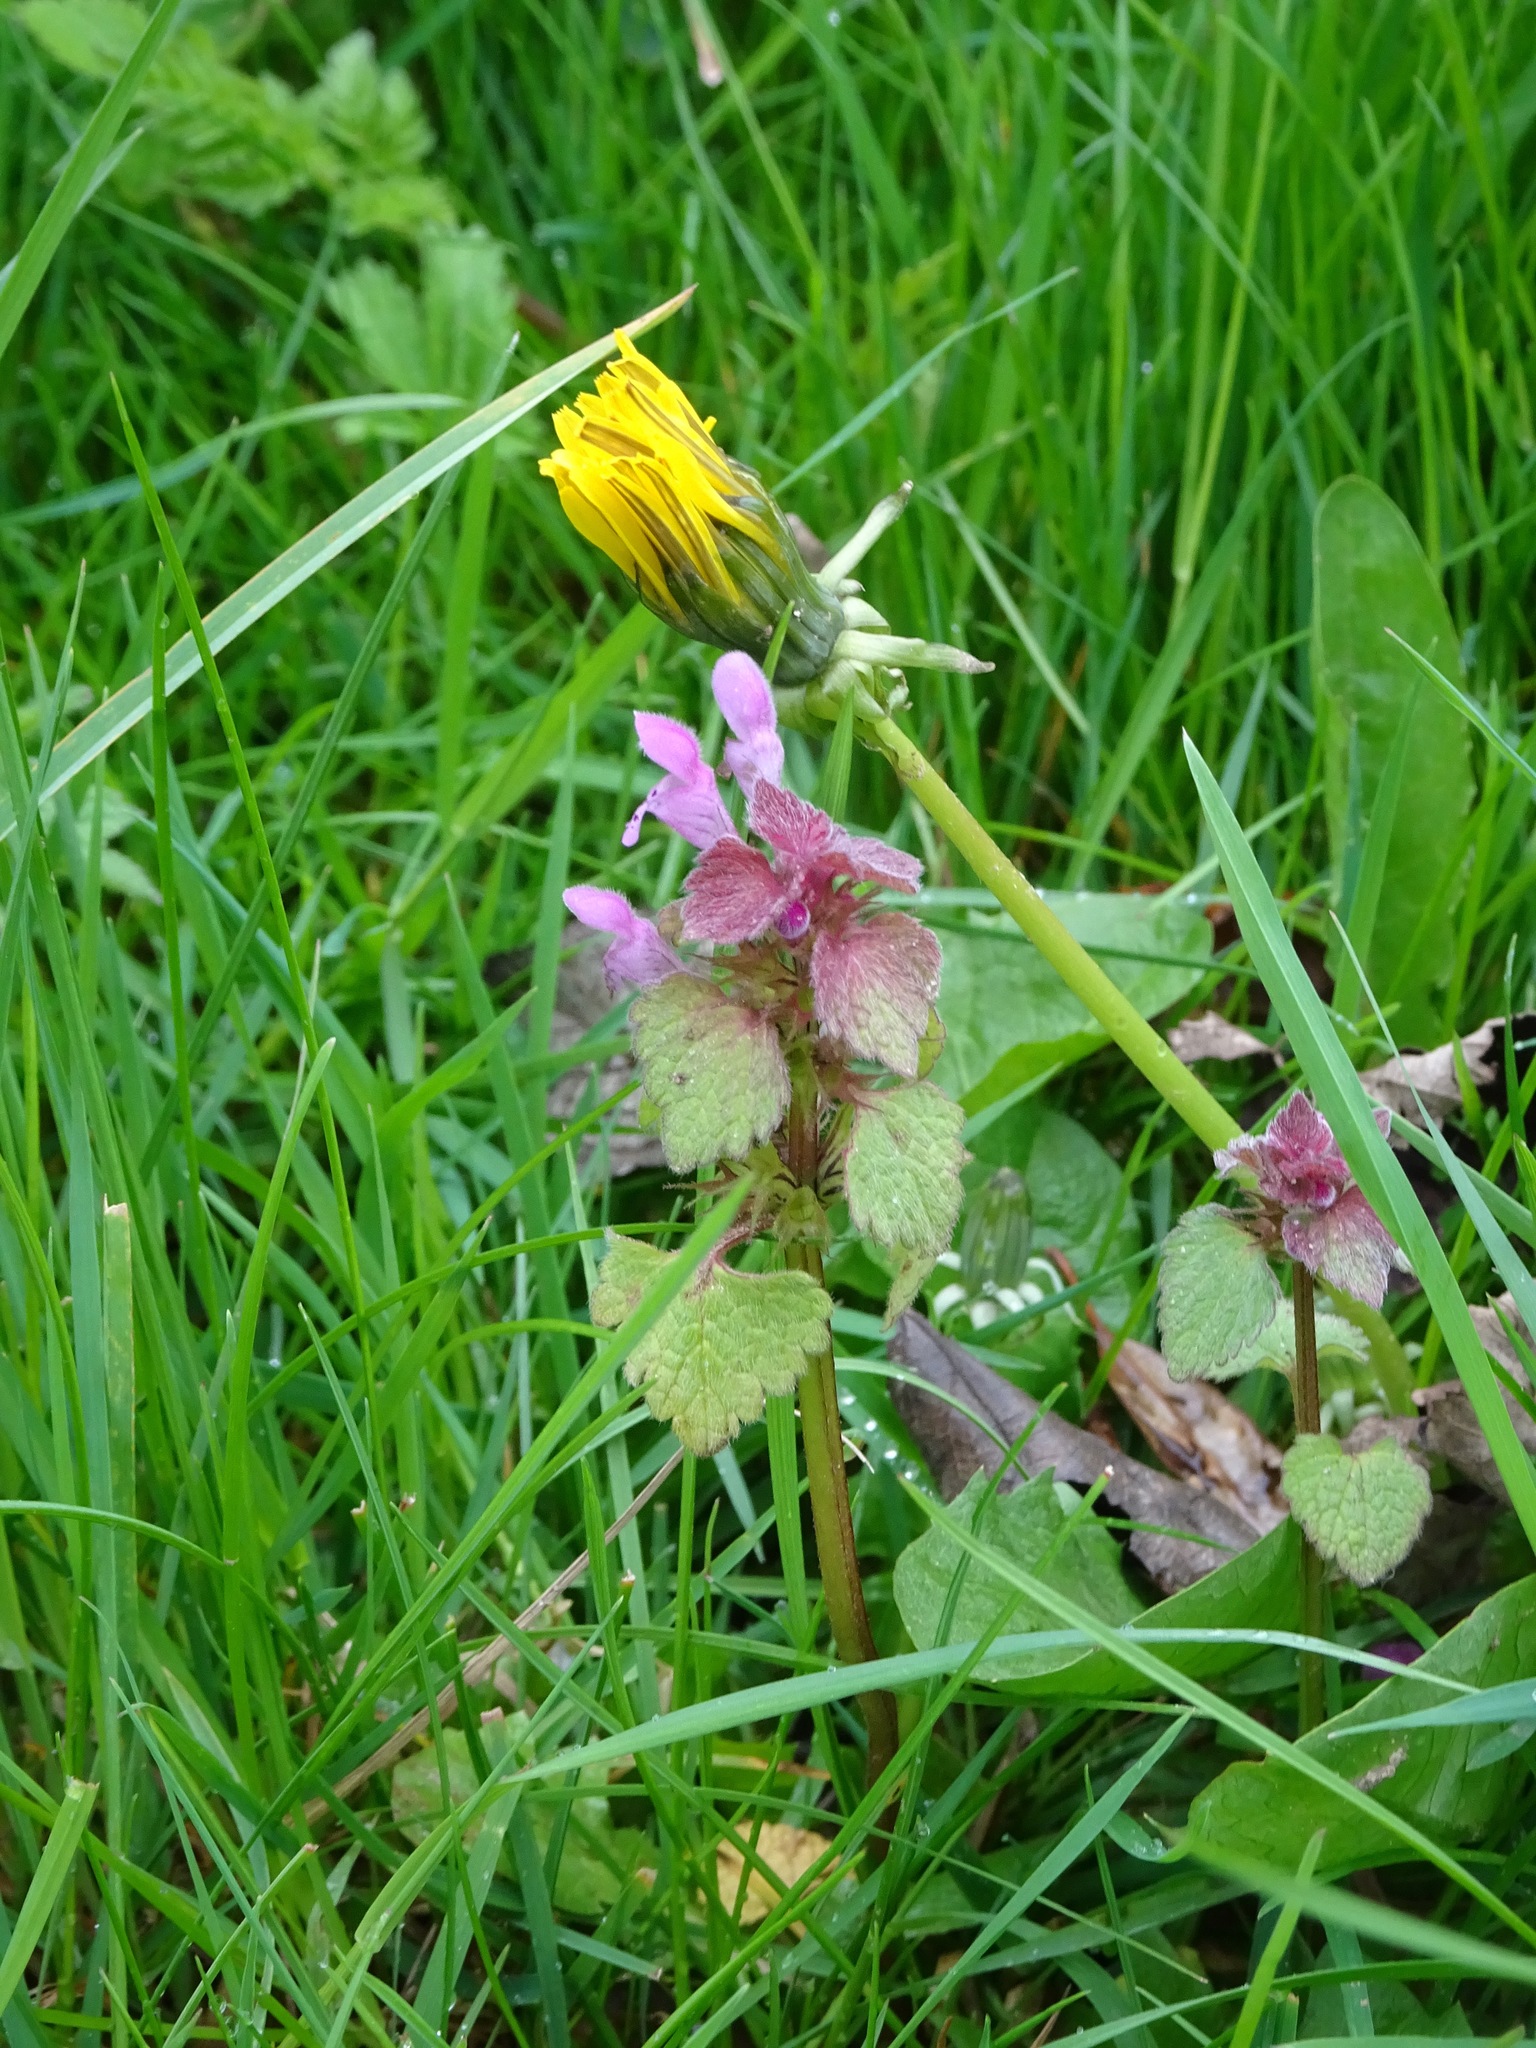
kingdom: Plantae
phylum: Tracheophyta
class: Magnoliopsida
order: Lamiales
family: Lamiaceae
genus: Lamium
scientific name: Lamium purpureum
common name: Red dead-nettle
